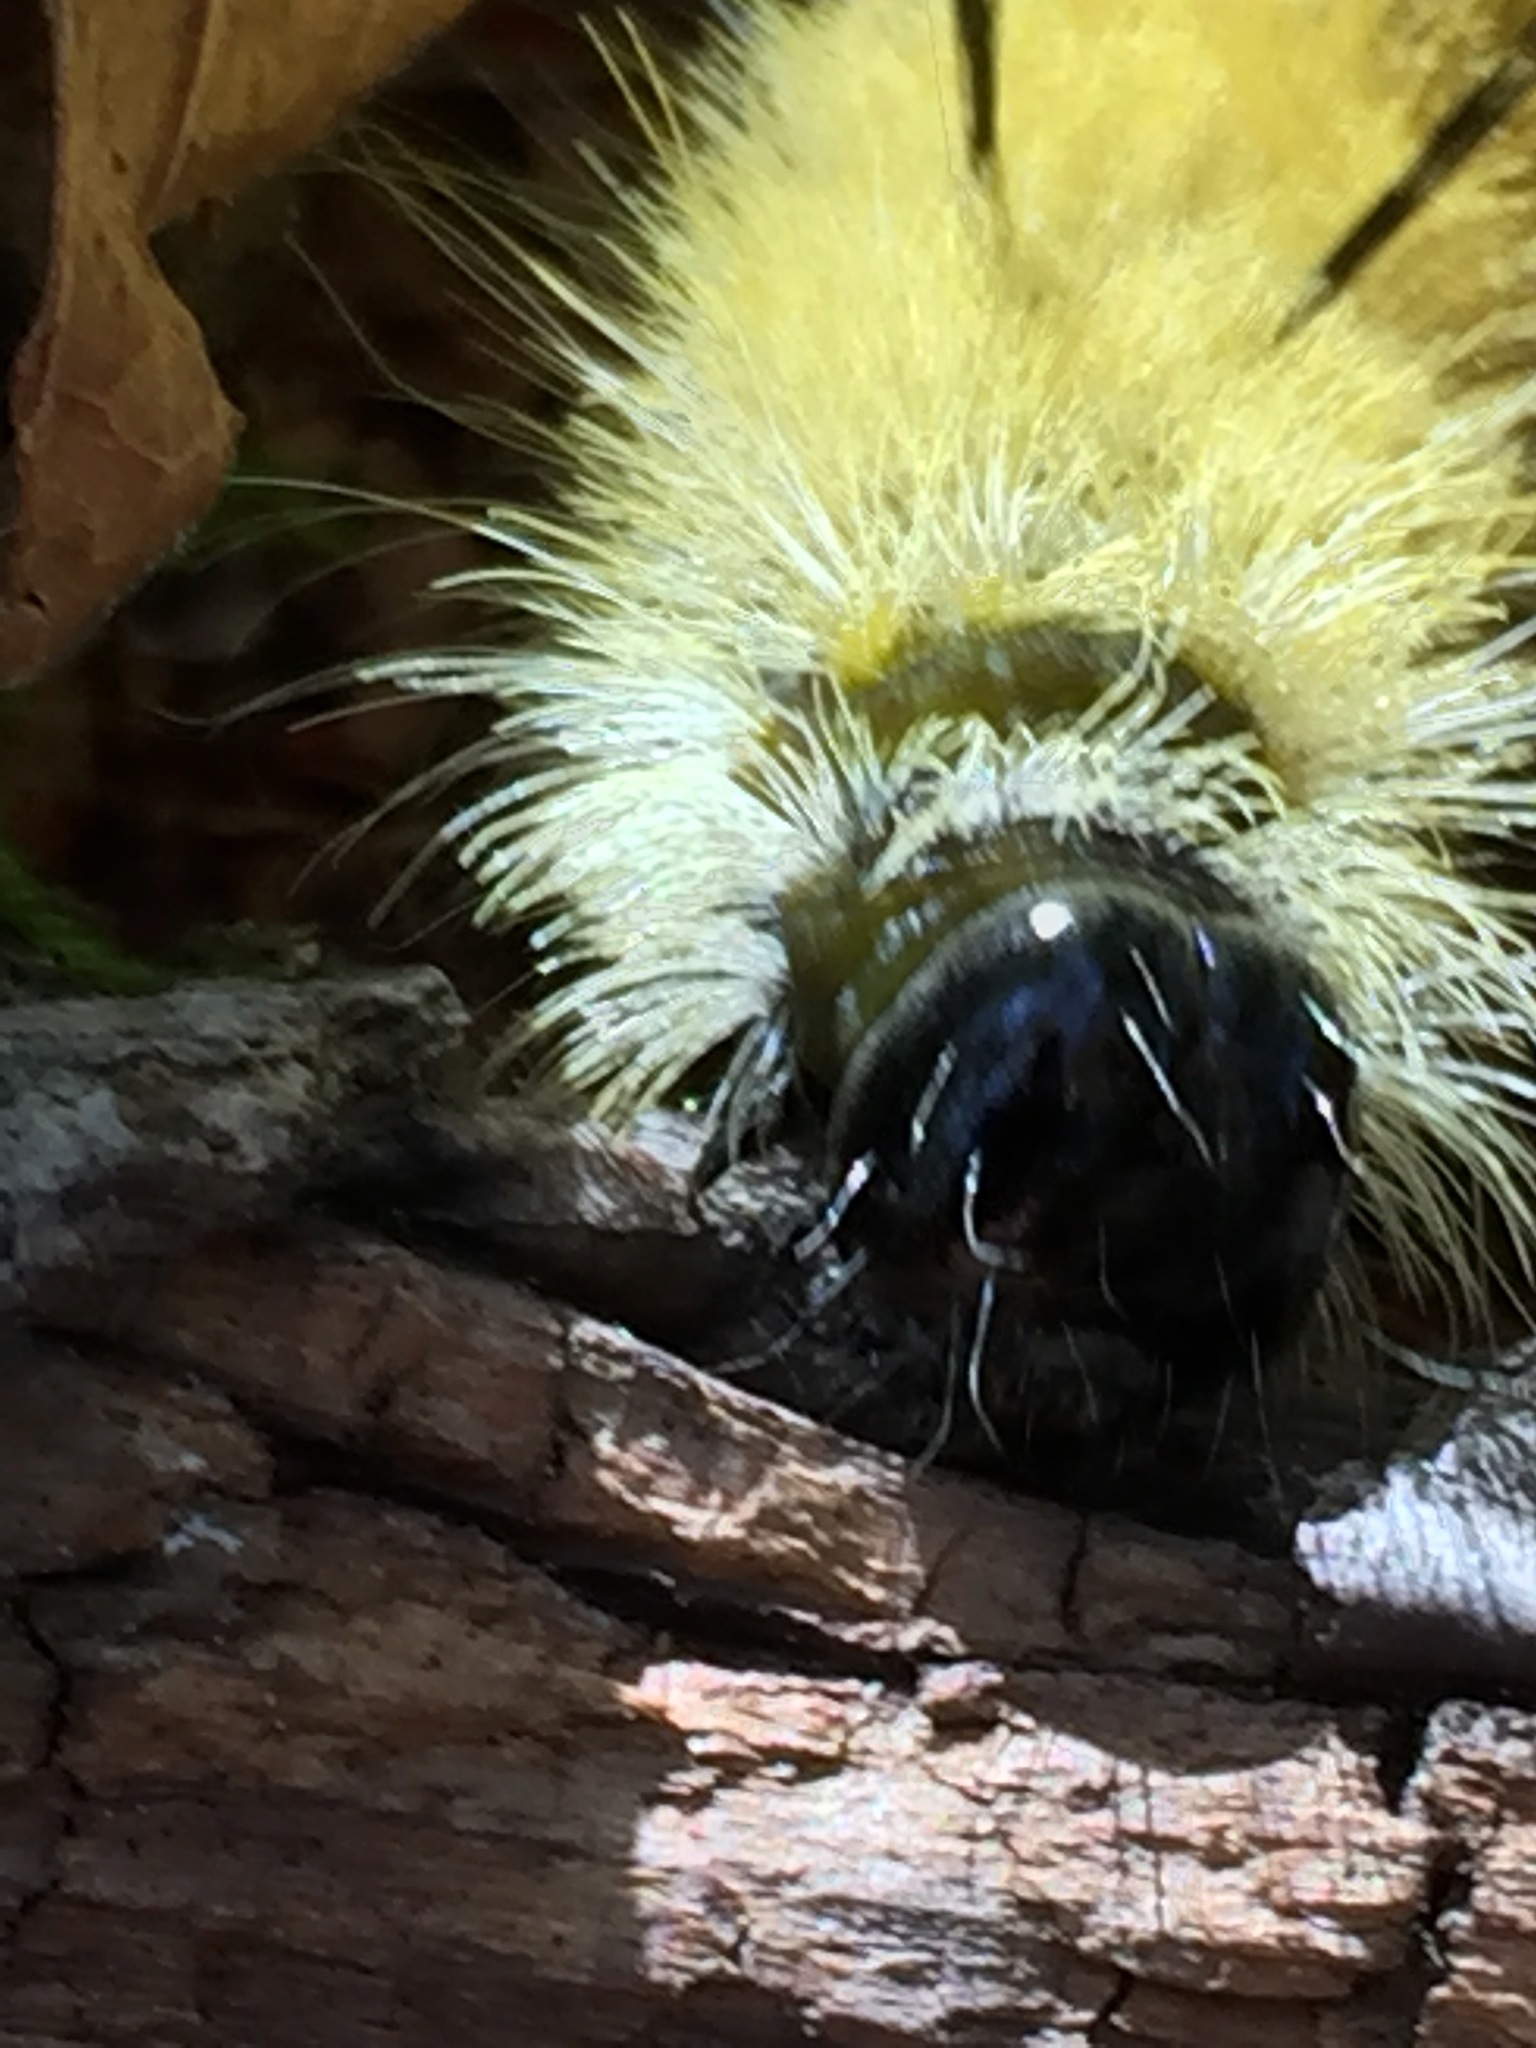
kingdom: Animalia
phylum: Arthropoda
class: Insecta
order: Lepidoptera
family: Noctuidae
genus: Acronicta
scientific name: Acronicta americana
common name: American dagger
